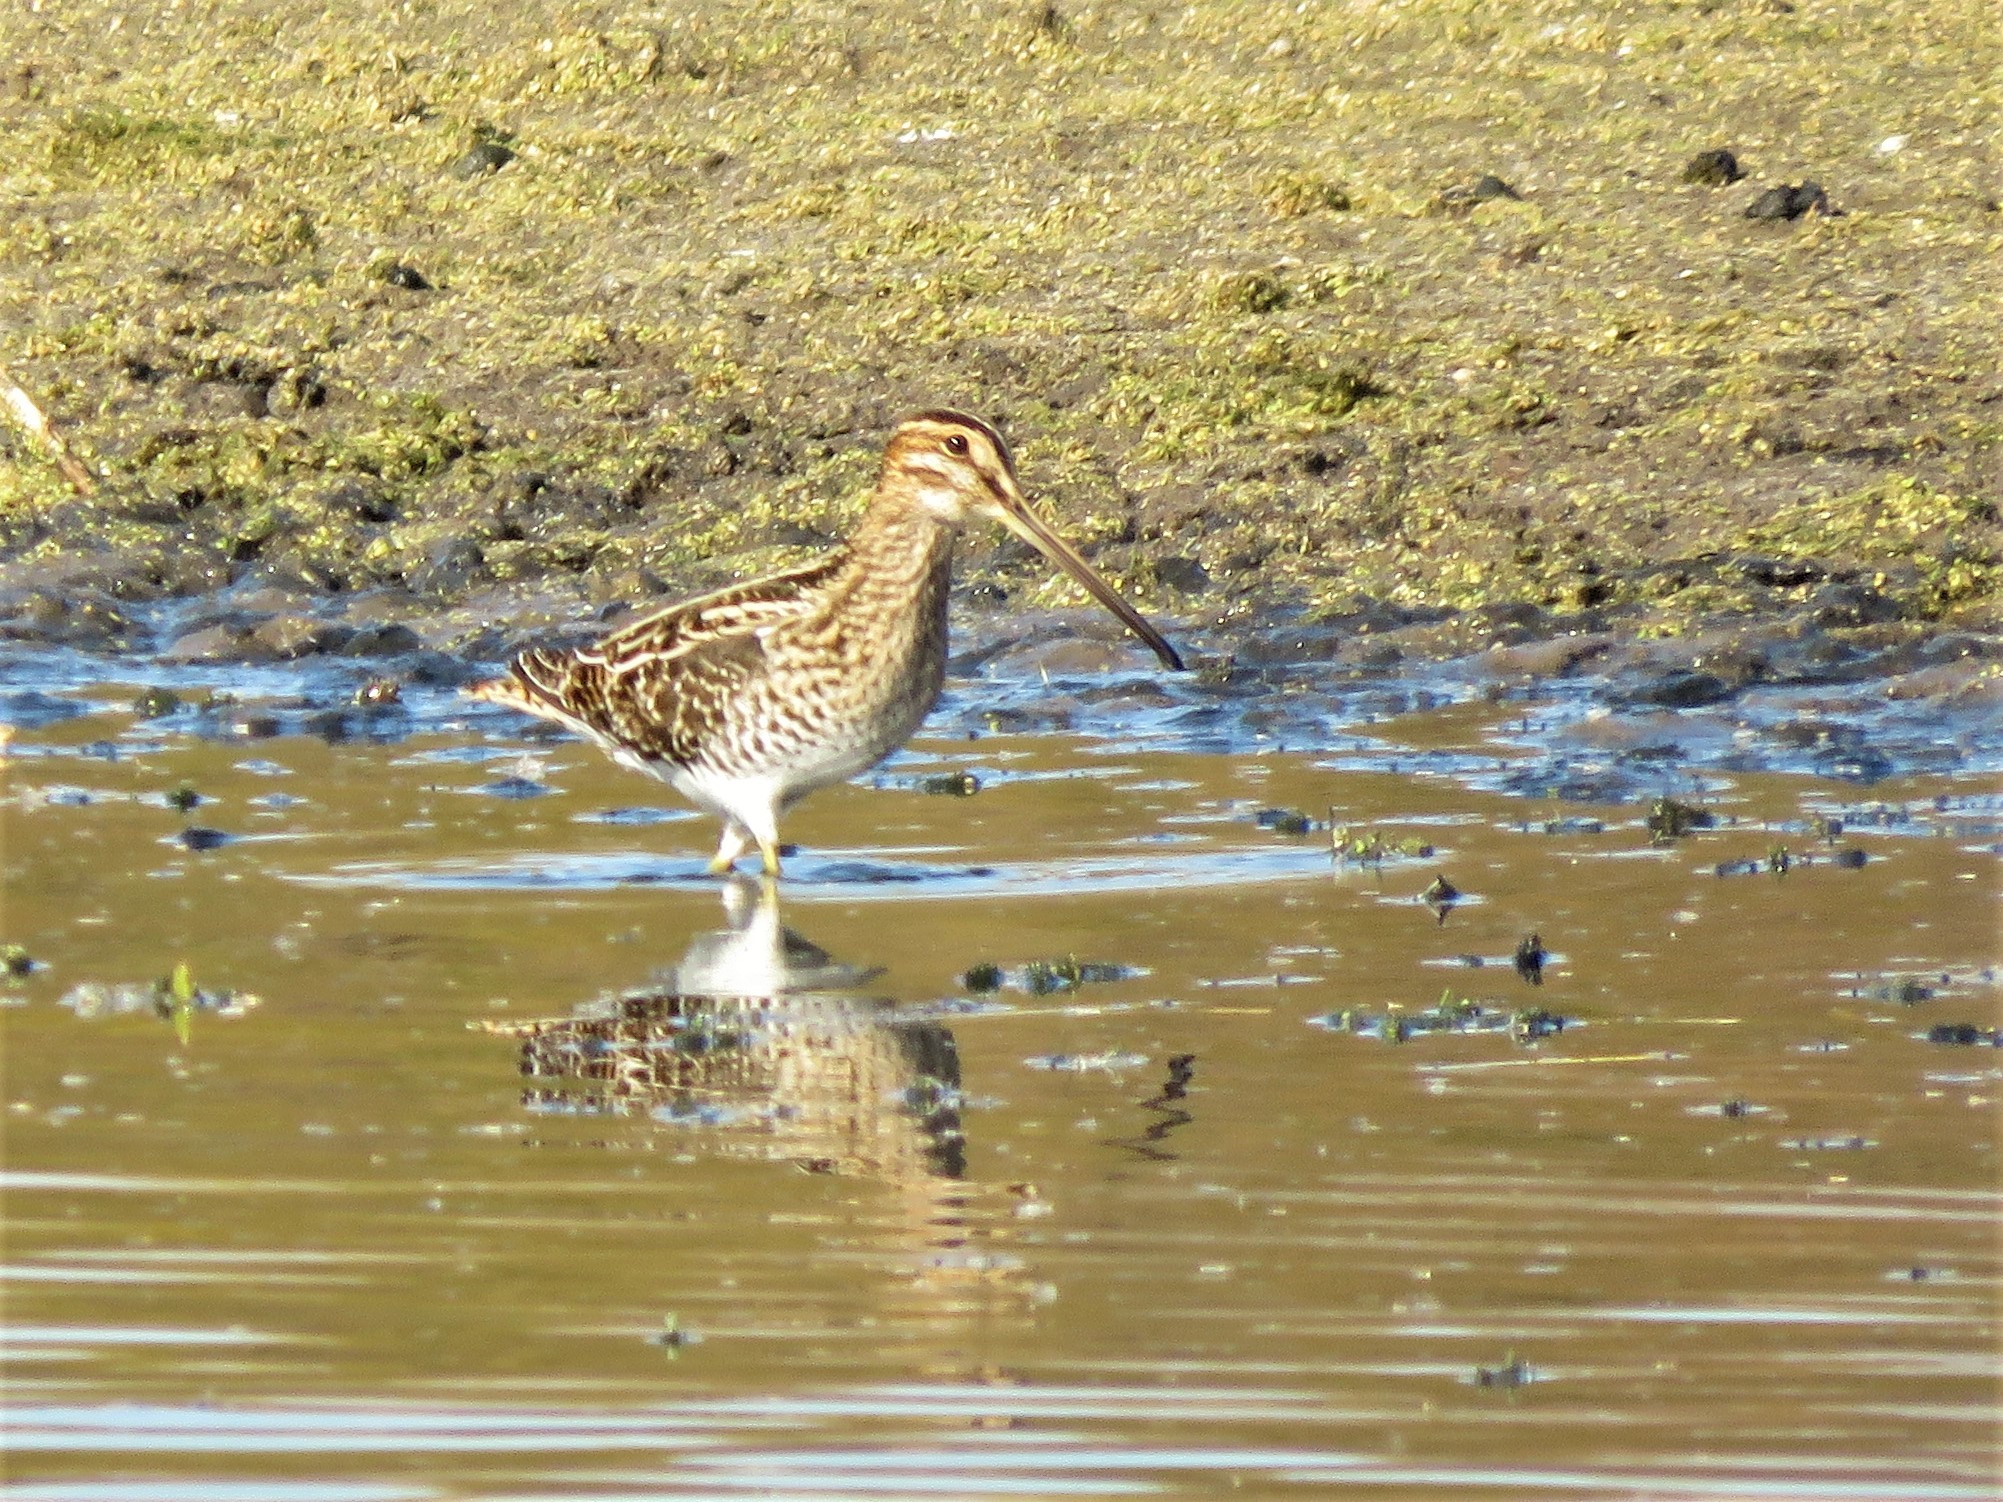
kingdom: Animalia
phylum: Chordata
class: Aves
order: Charadriiformes
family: Scolopacidae
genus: Gallinago
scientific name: Gallinago delicata
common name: Wilson's snipe
